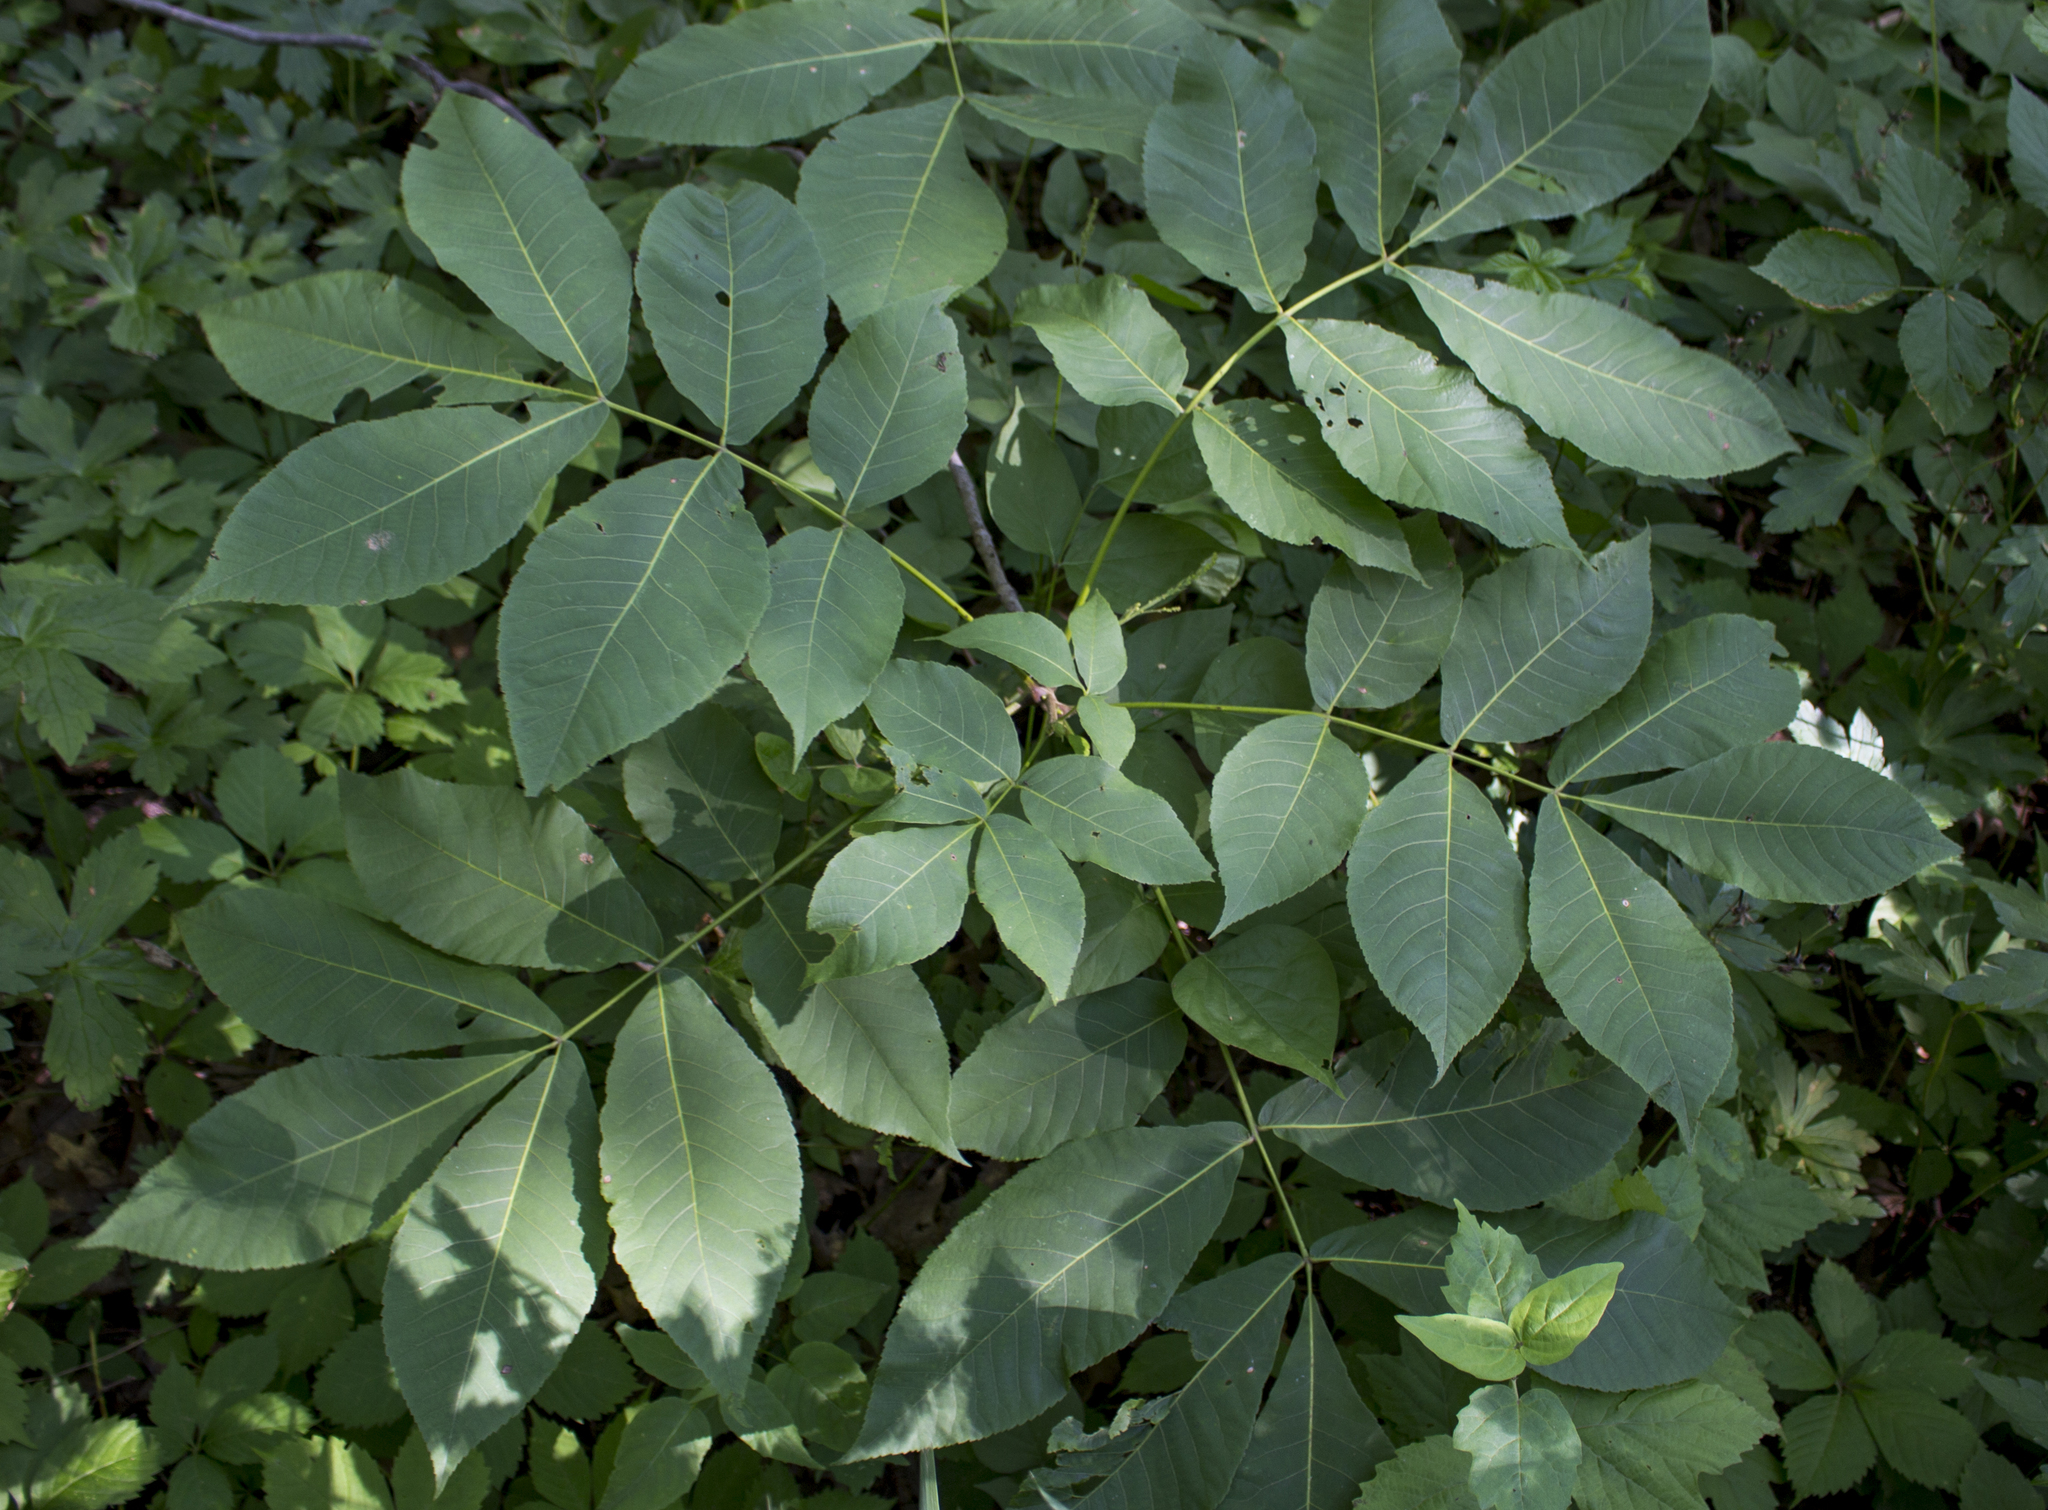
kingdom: Plantae
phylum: Tracheophyta
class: Magnoliopsida
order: Fagales
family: Juglandaceae
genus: Carya
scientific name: Carya cordiformis
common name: Bitternut hickory
